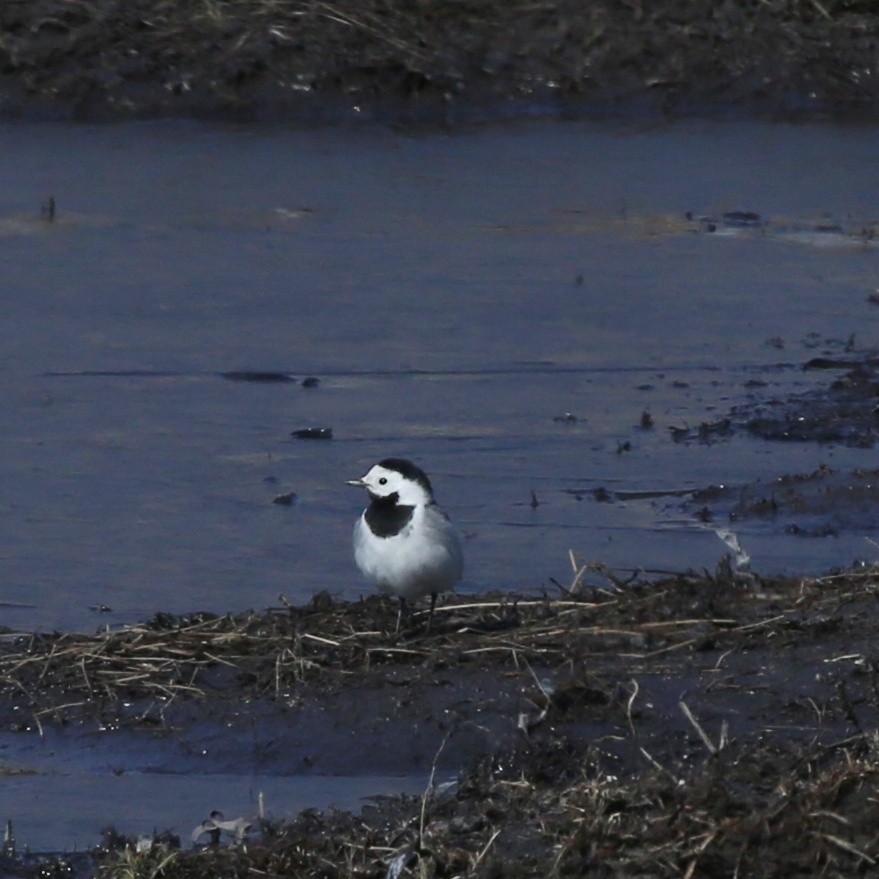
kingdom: Animalia
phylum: Chordata
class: Aves
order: Passeriformes
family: Motacillidae
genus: Motacilla
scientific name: Motacilla alba
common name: White wagtail
